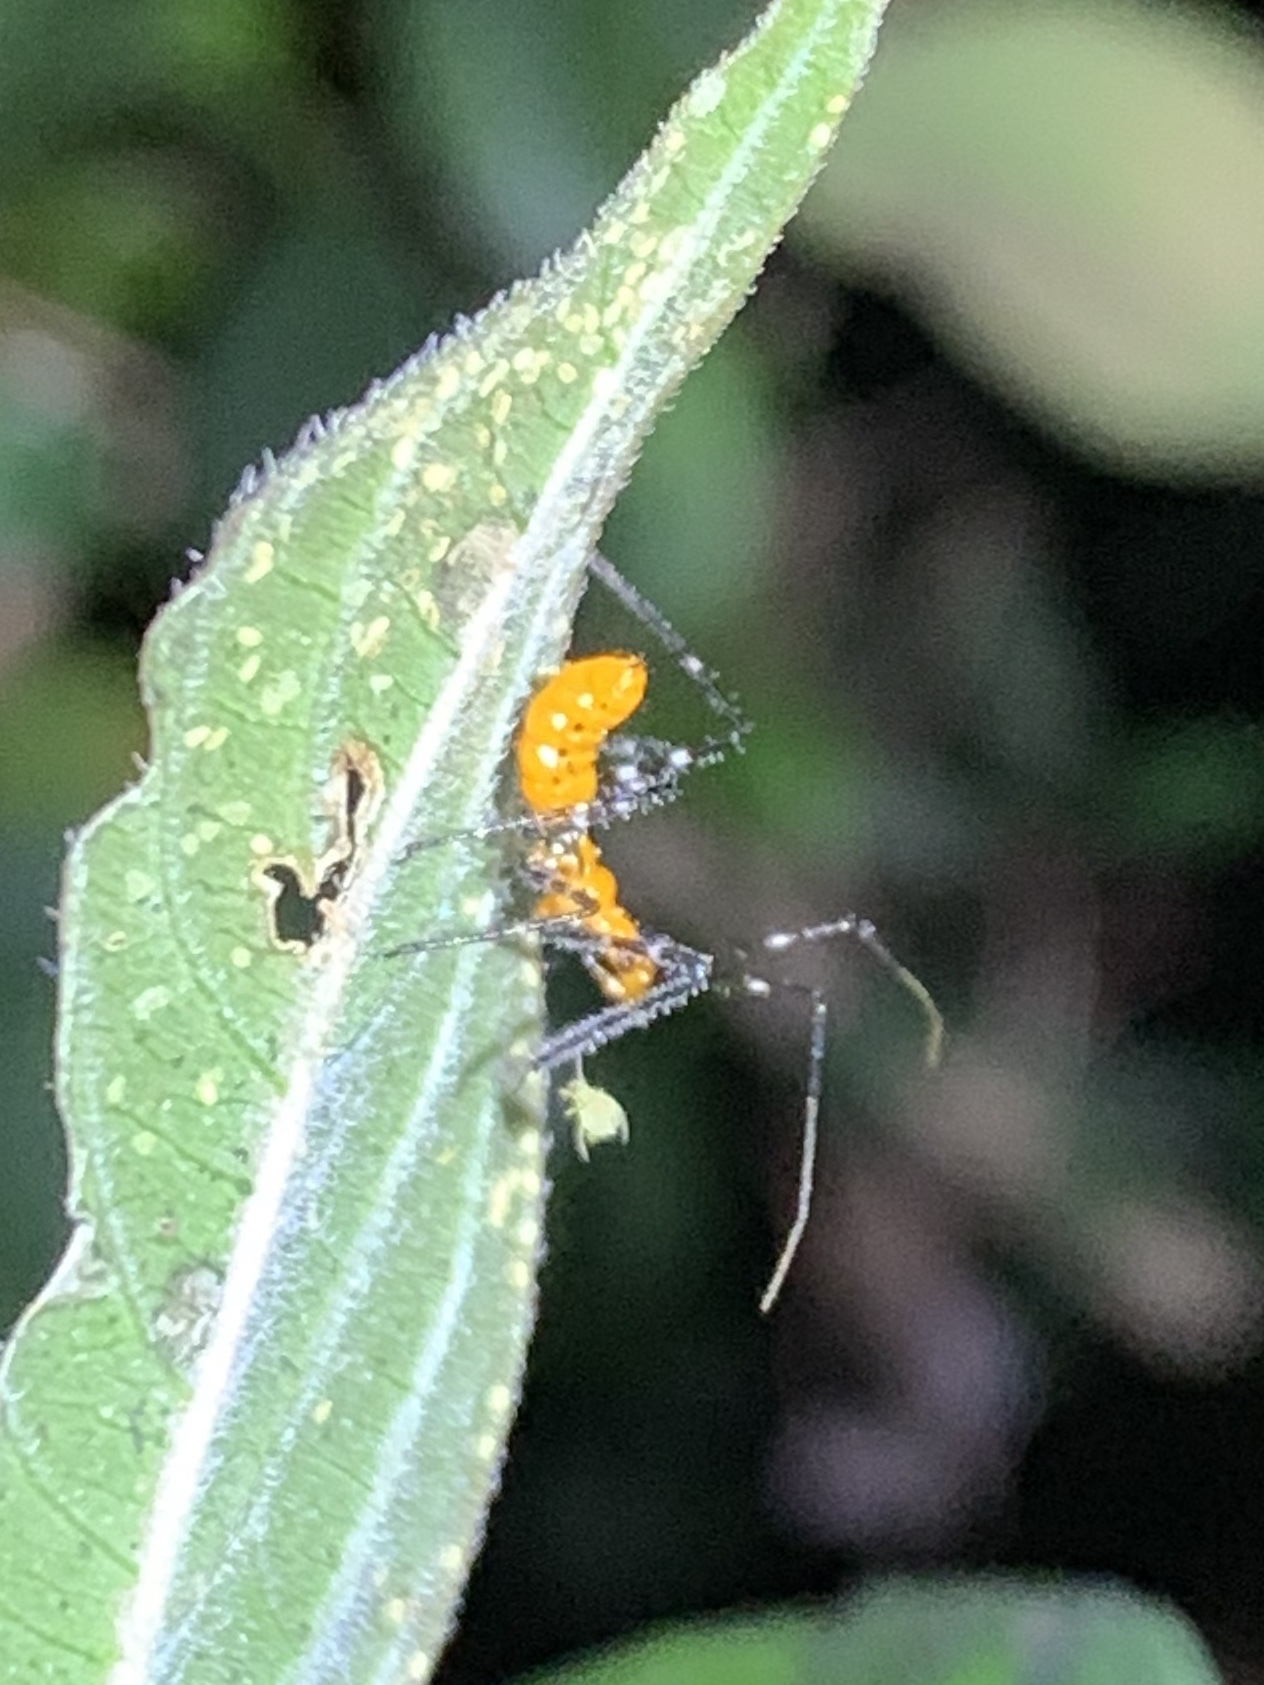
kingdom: Animalia
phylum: Arthropoda
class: Insecta
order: Hemiptera
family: Reduviidae
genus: Zelus
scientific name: Zelus longipes
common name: Milkweed assassin bug
